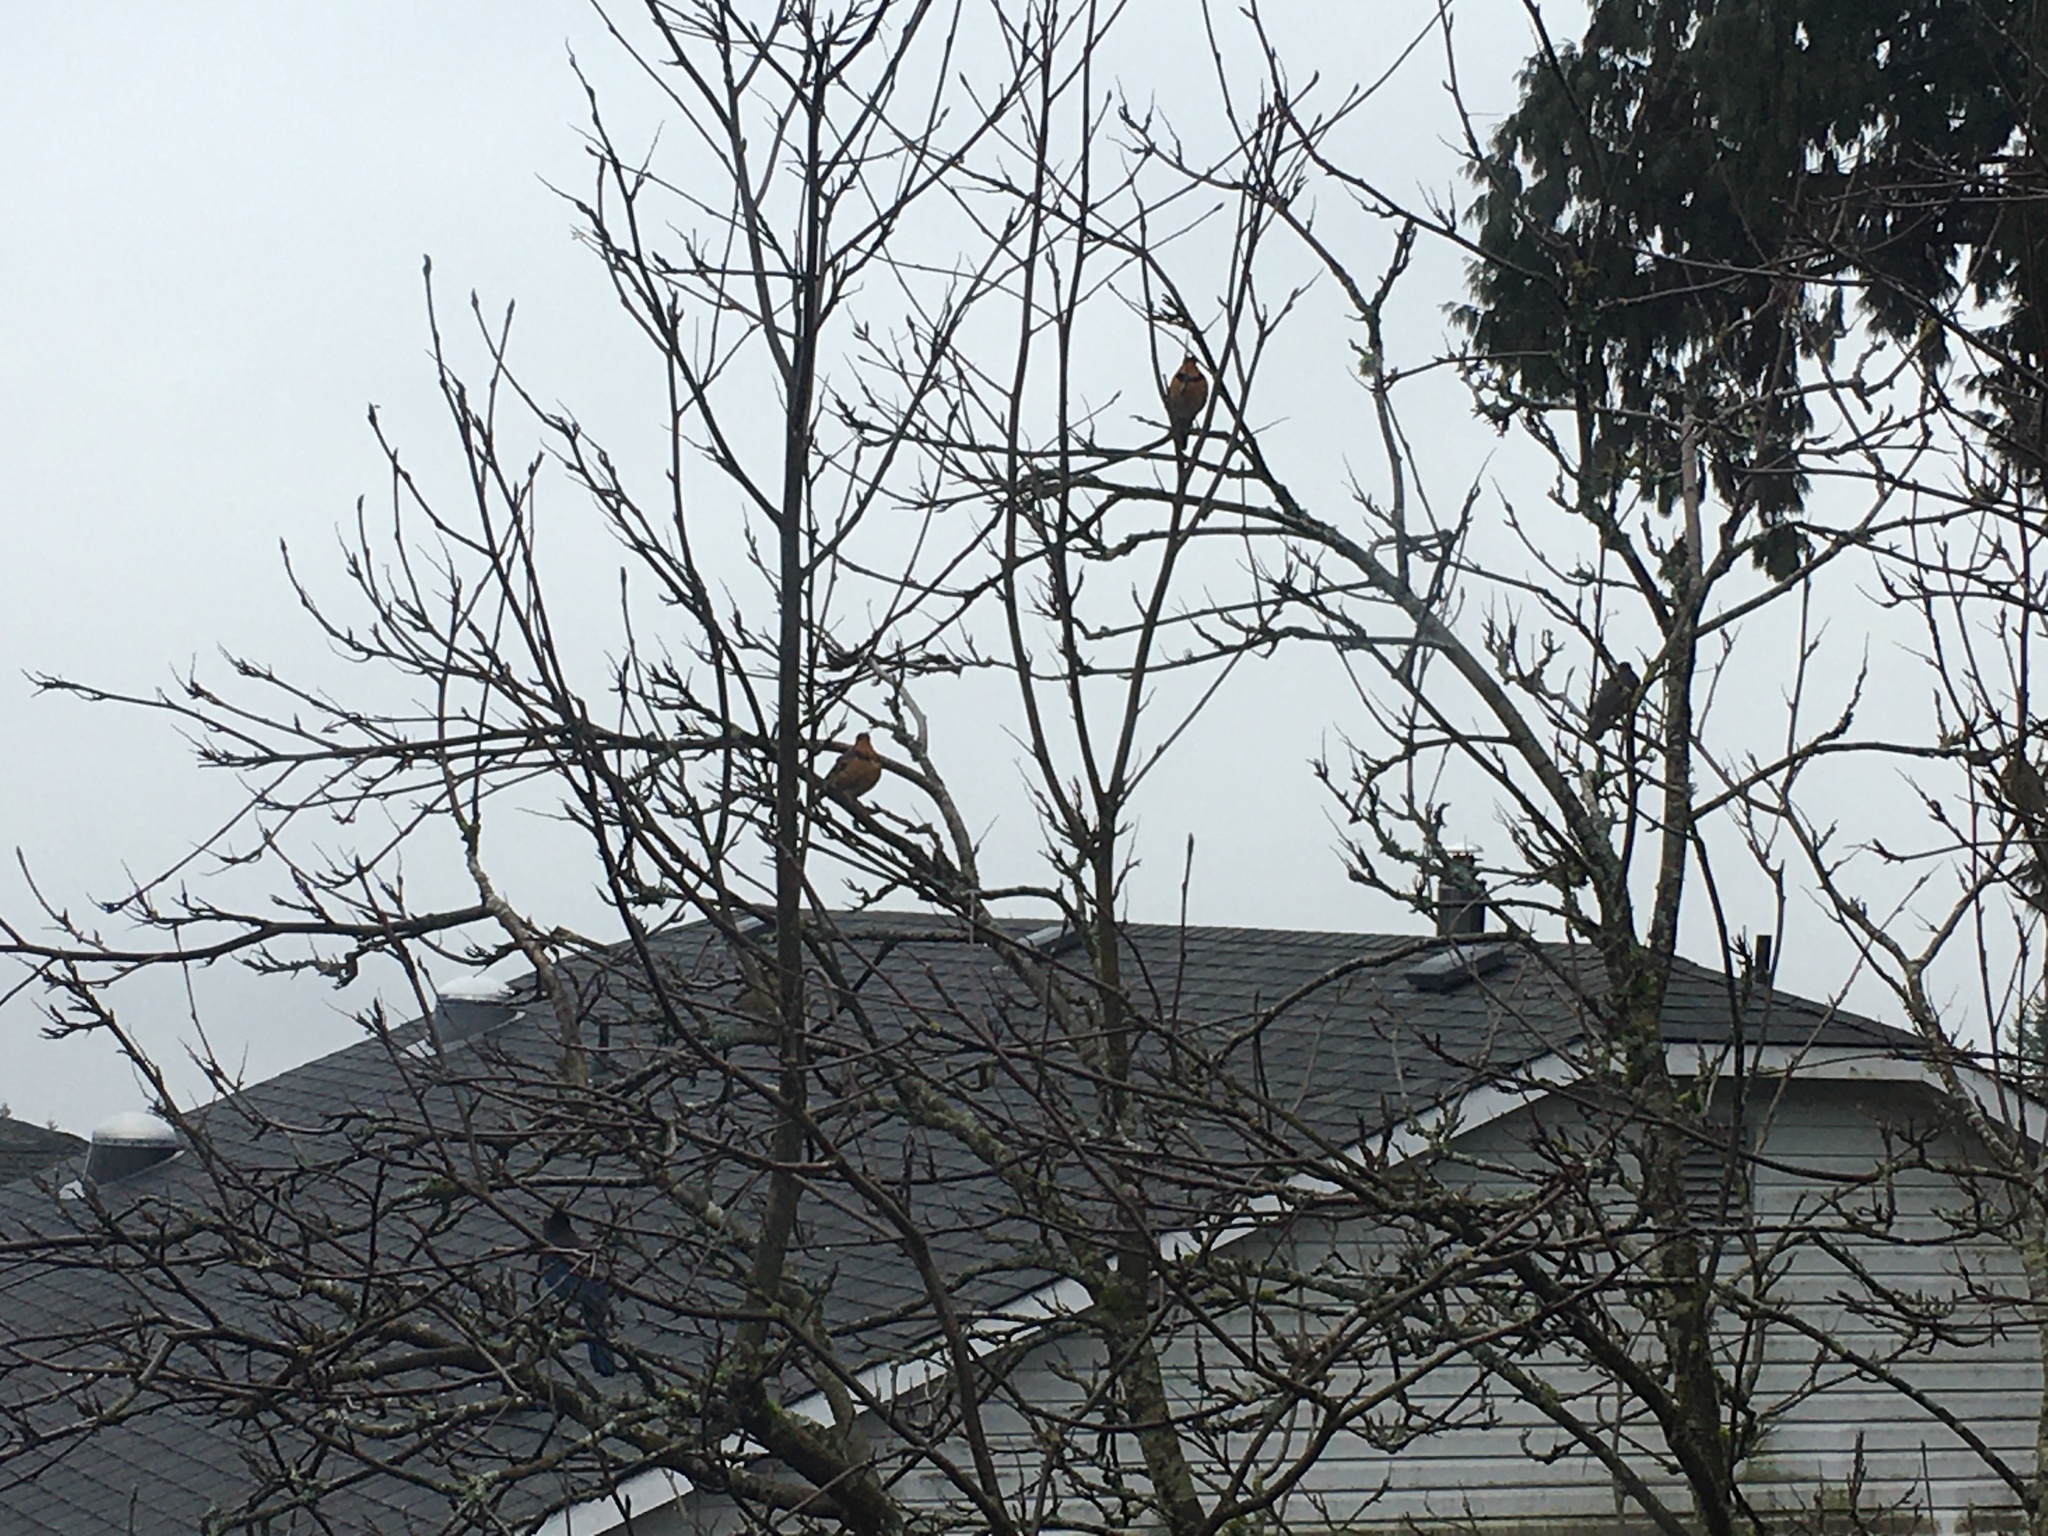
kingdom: Animalia
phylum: Chordata
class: Aves
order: Passeriformes
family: Turdidae
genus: Ixoreus
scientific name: Ixoreus naevius
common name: Varied thrush
